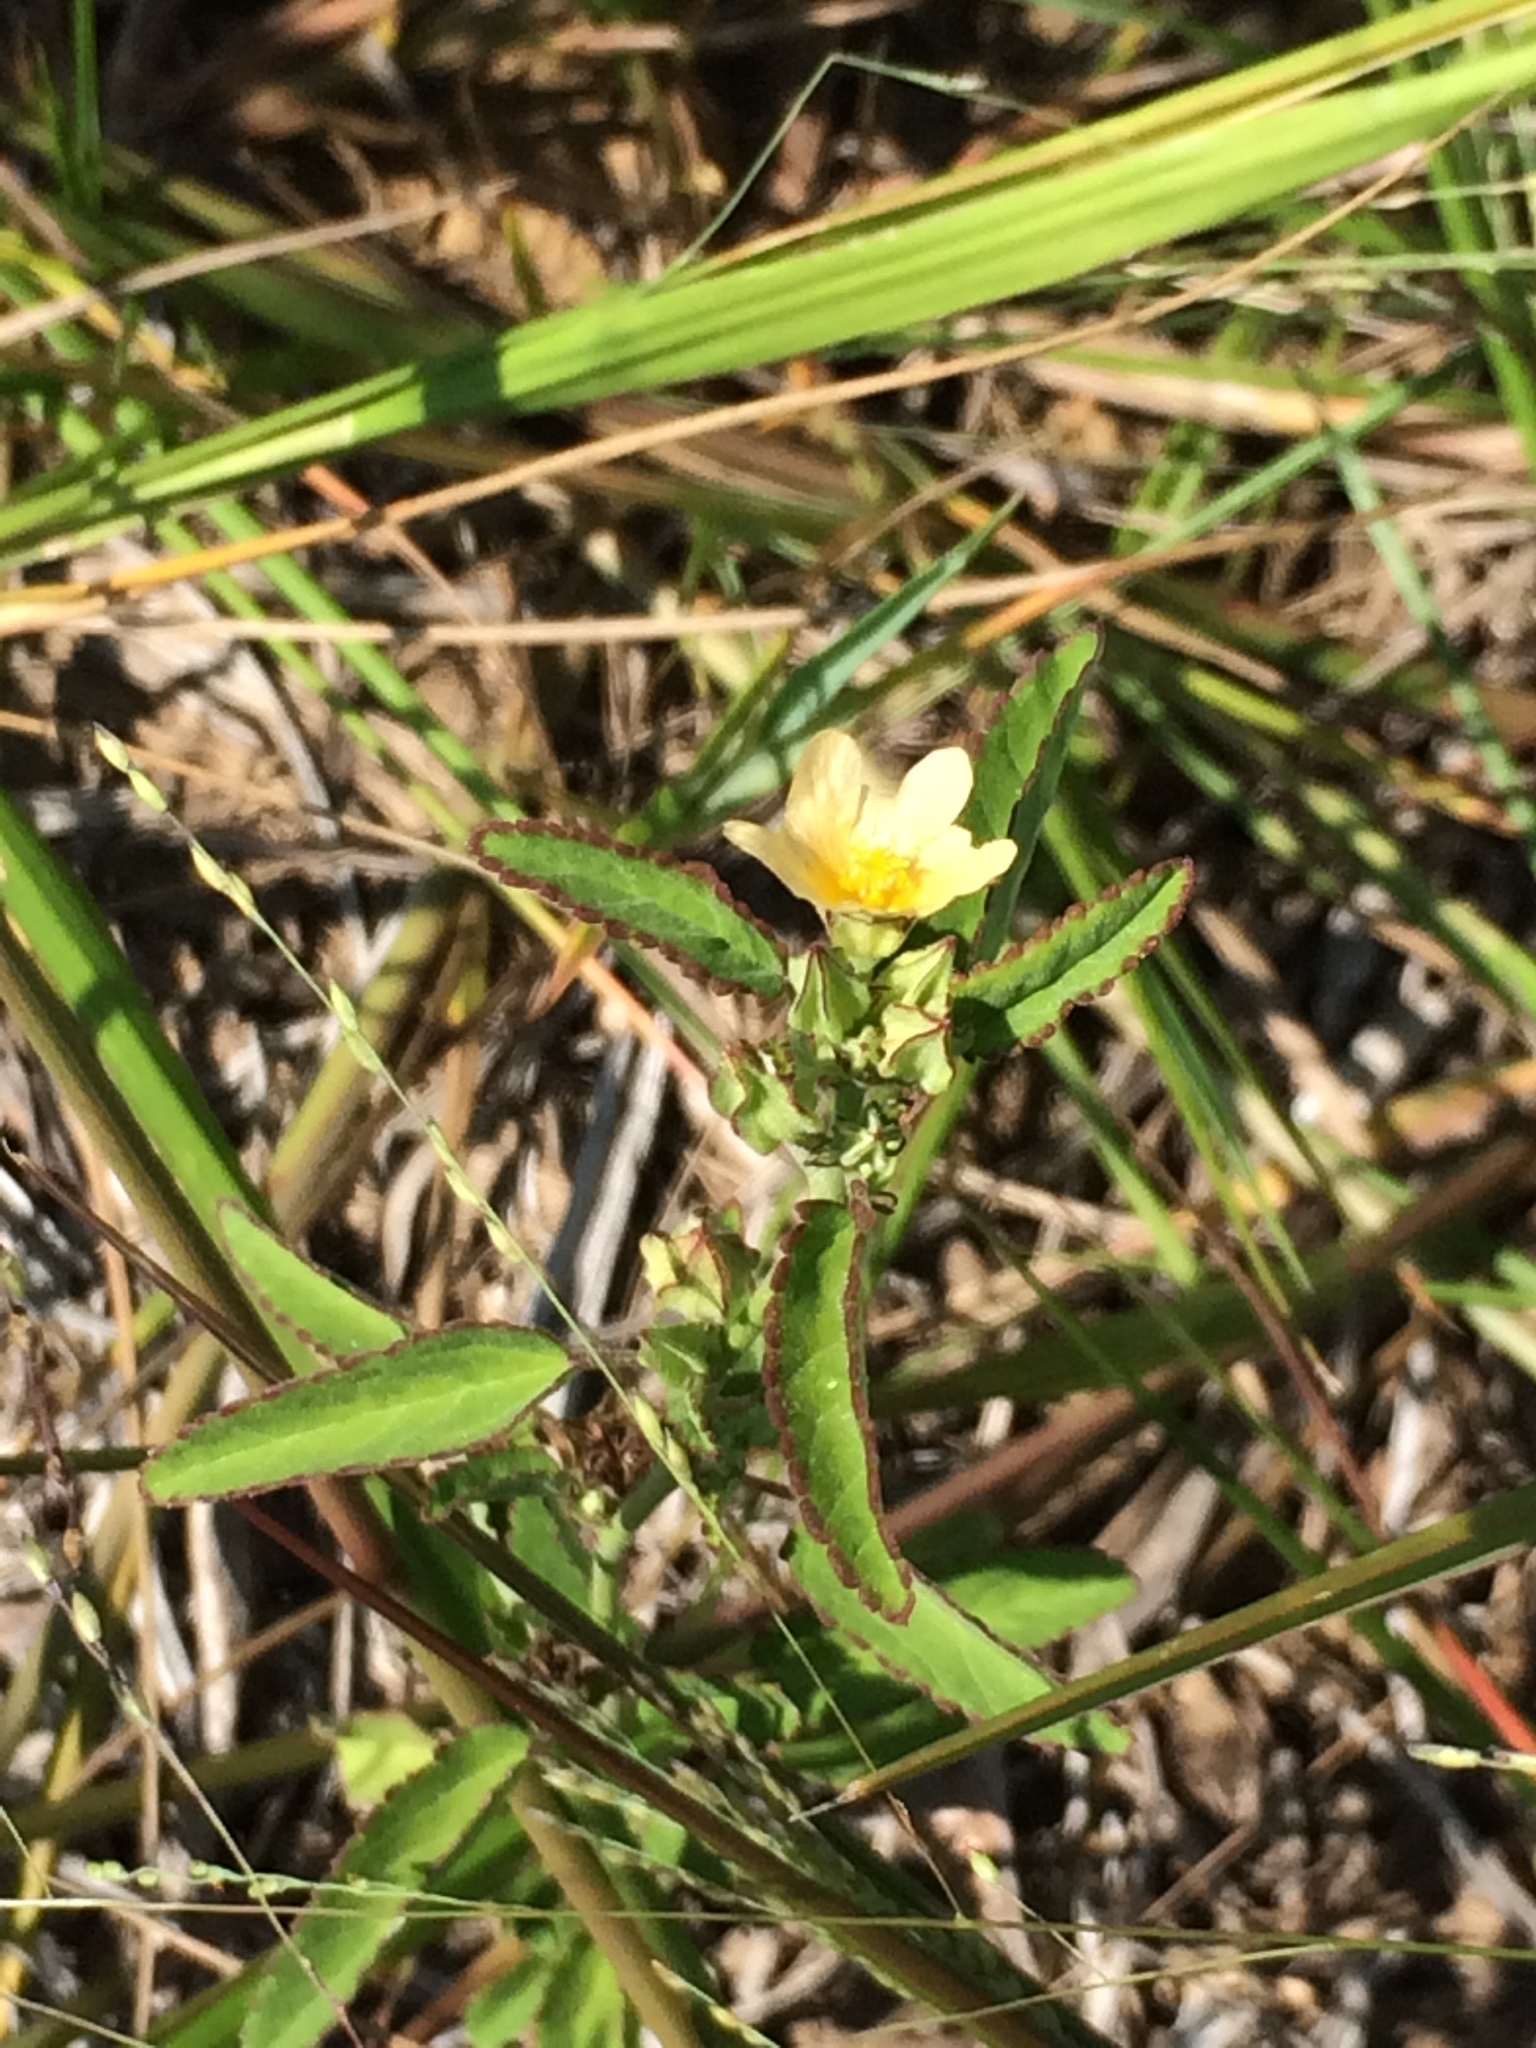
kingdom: Plantae
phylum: Tracheophyta
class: Magnoliopsida
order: Malvales
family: Malvaceae
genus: Sida
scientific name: Sida spinosa
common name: Prickly fanpetals
